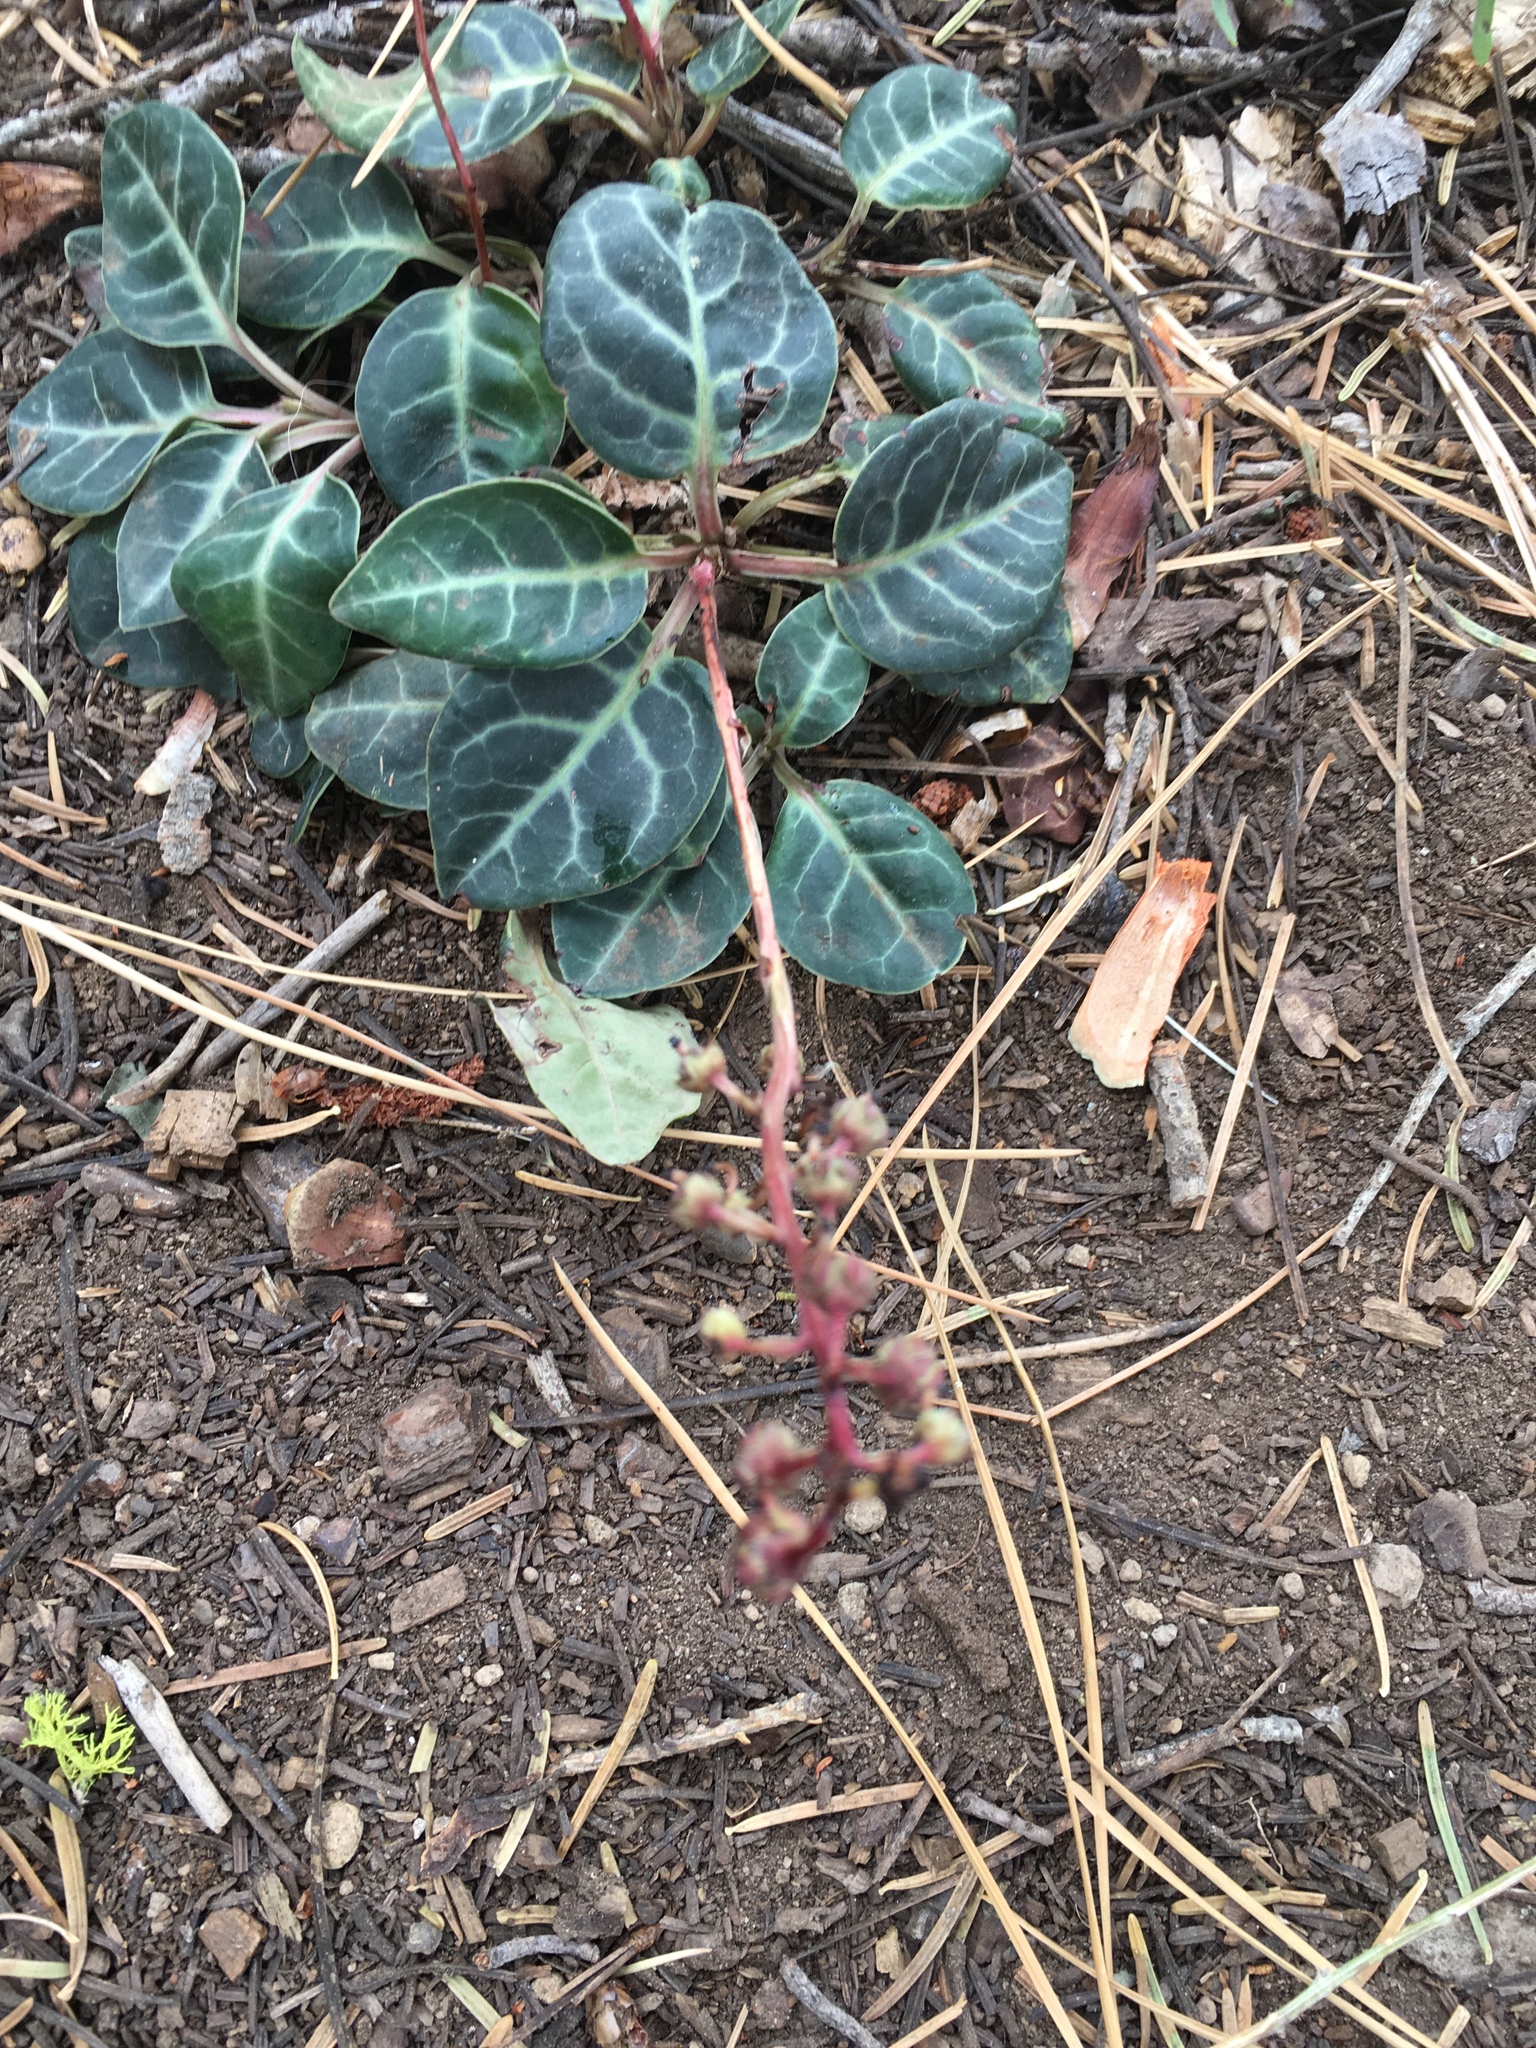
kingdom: Plantae
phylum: Tracheophyta
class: Magnoliopsida
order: Ericales
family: Ericaceae
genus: Pyrola
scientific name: Pyrola picta
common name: White-vein wintergreen
